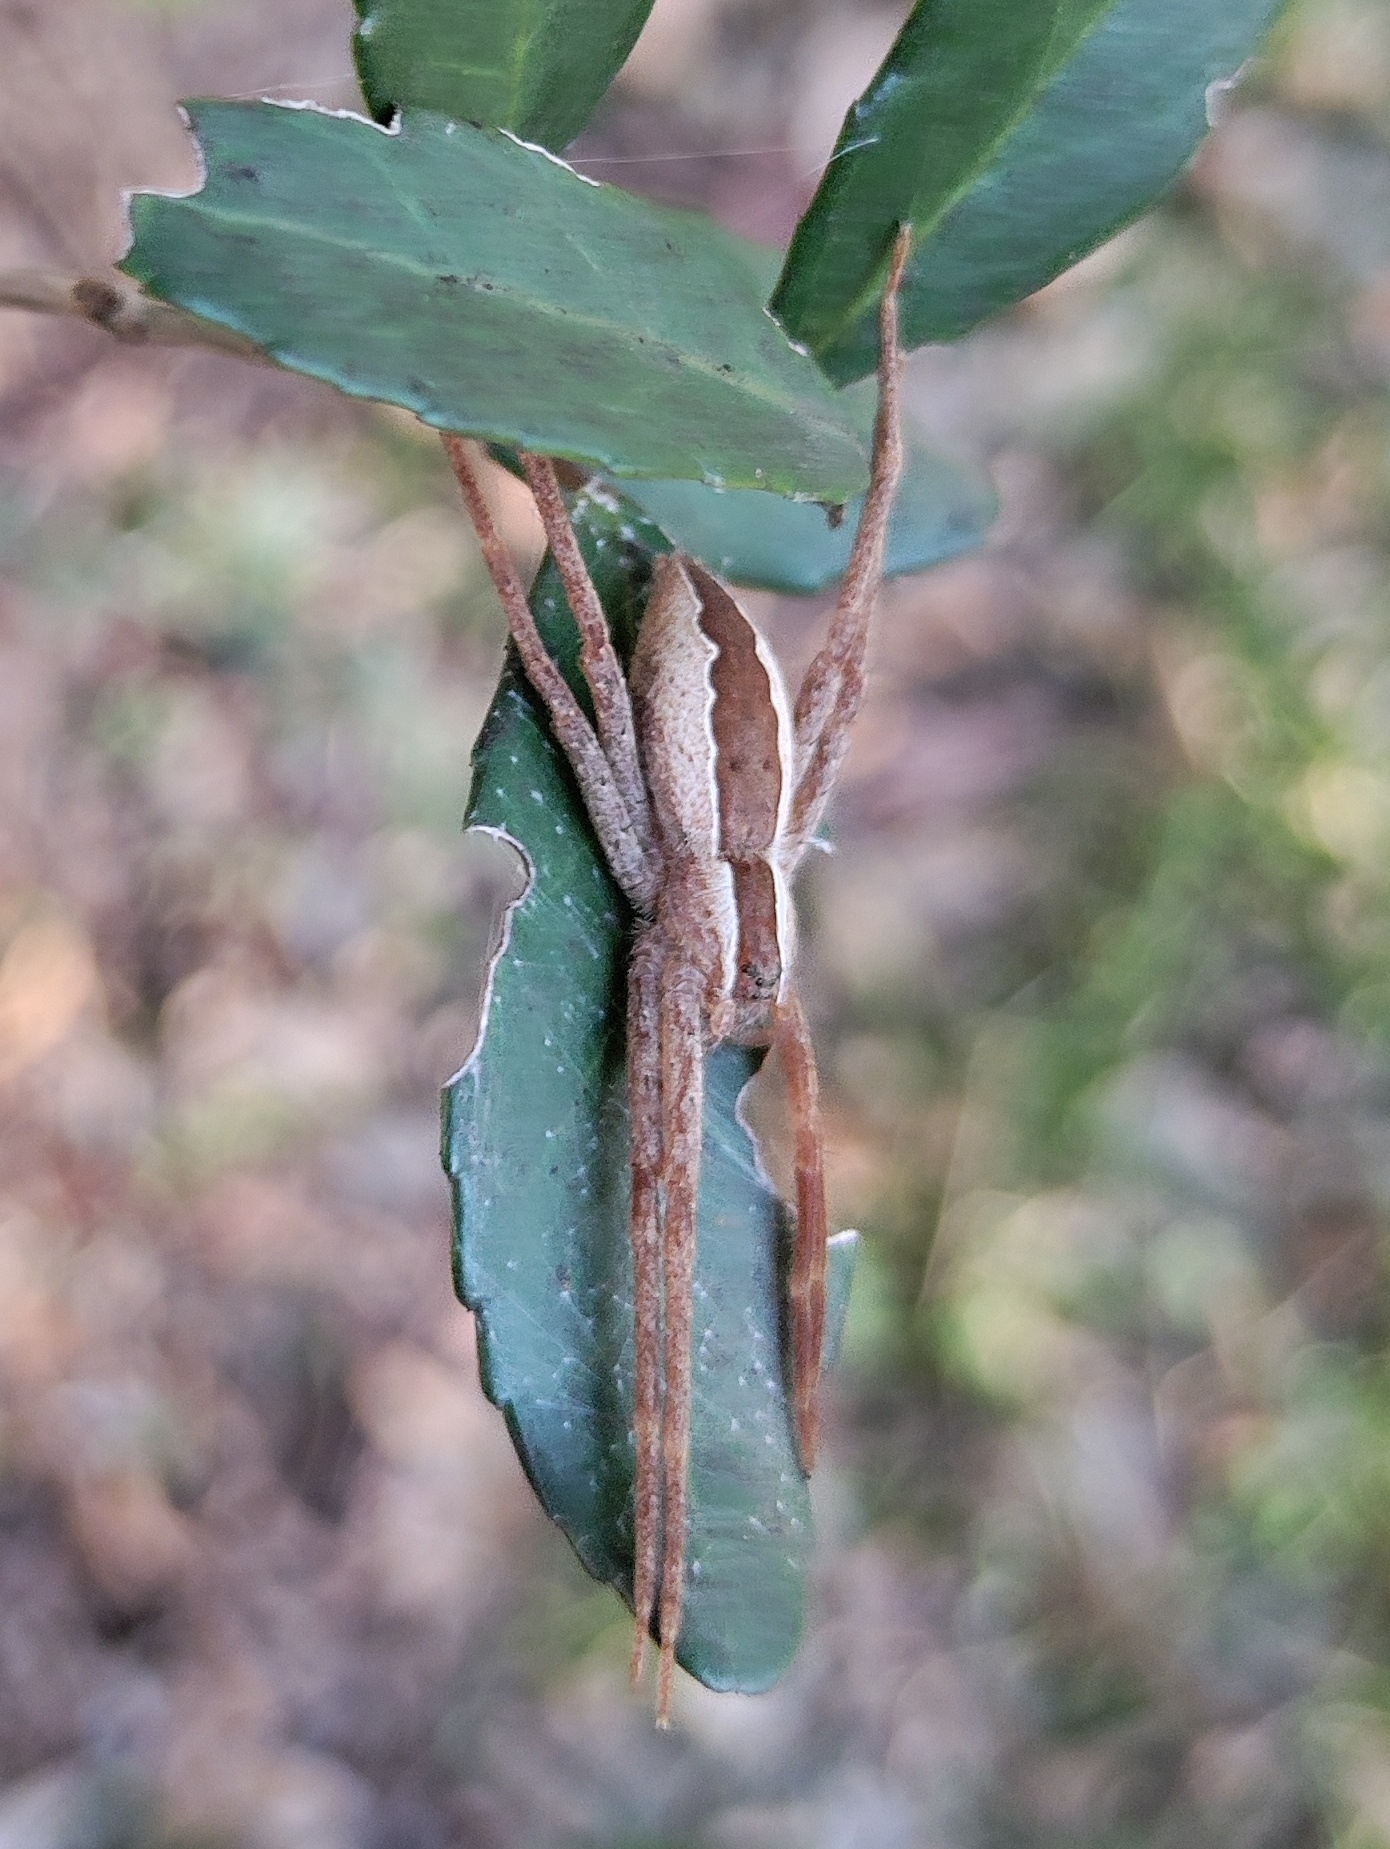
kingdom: Animalia
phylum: Arthropoda
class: Arachnida
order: Araneae
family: Pisauridae
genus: Pisaurina
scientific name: Pisaurina mira
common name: American nursery web spider
